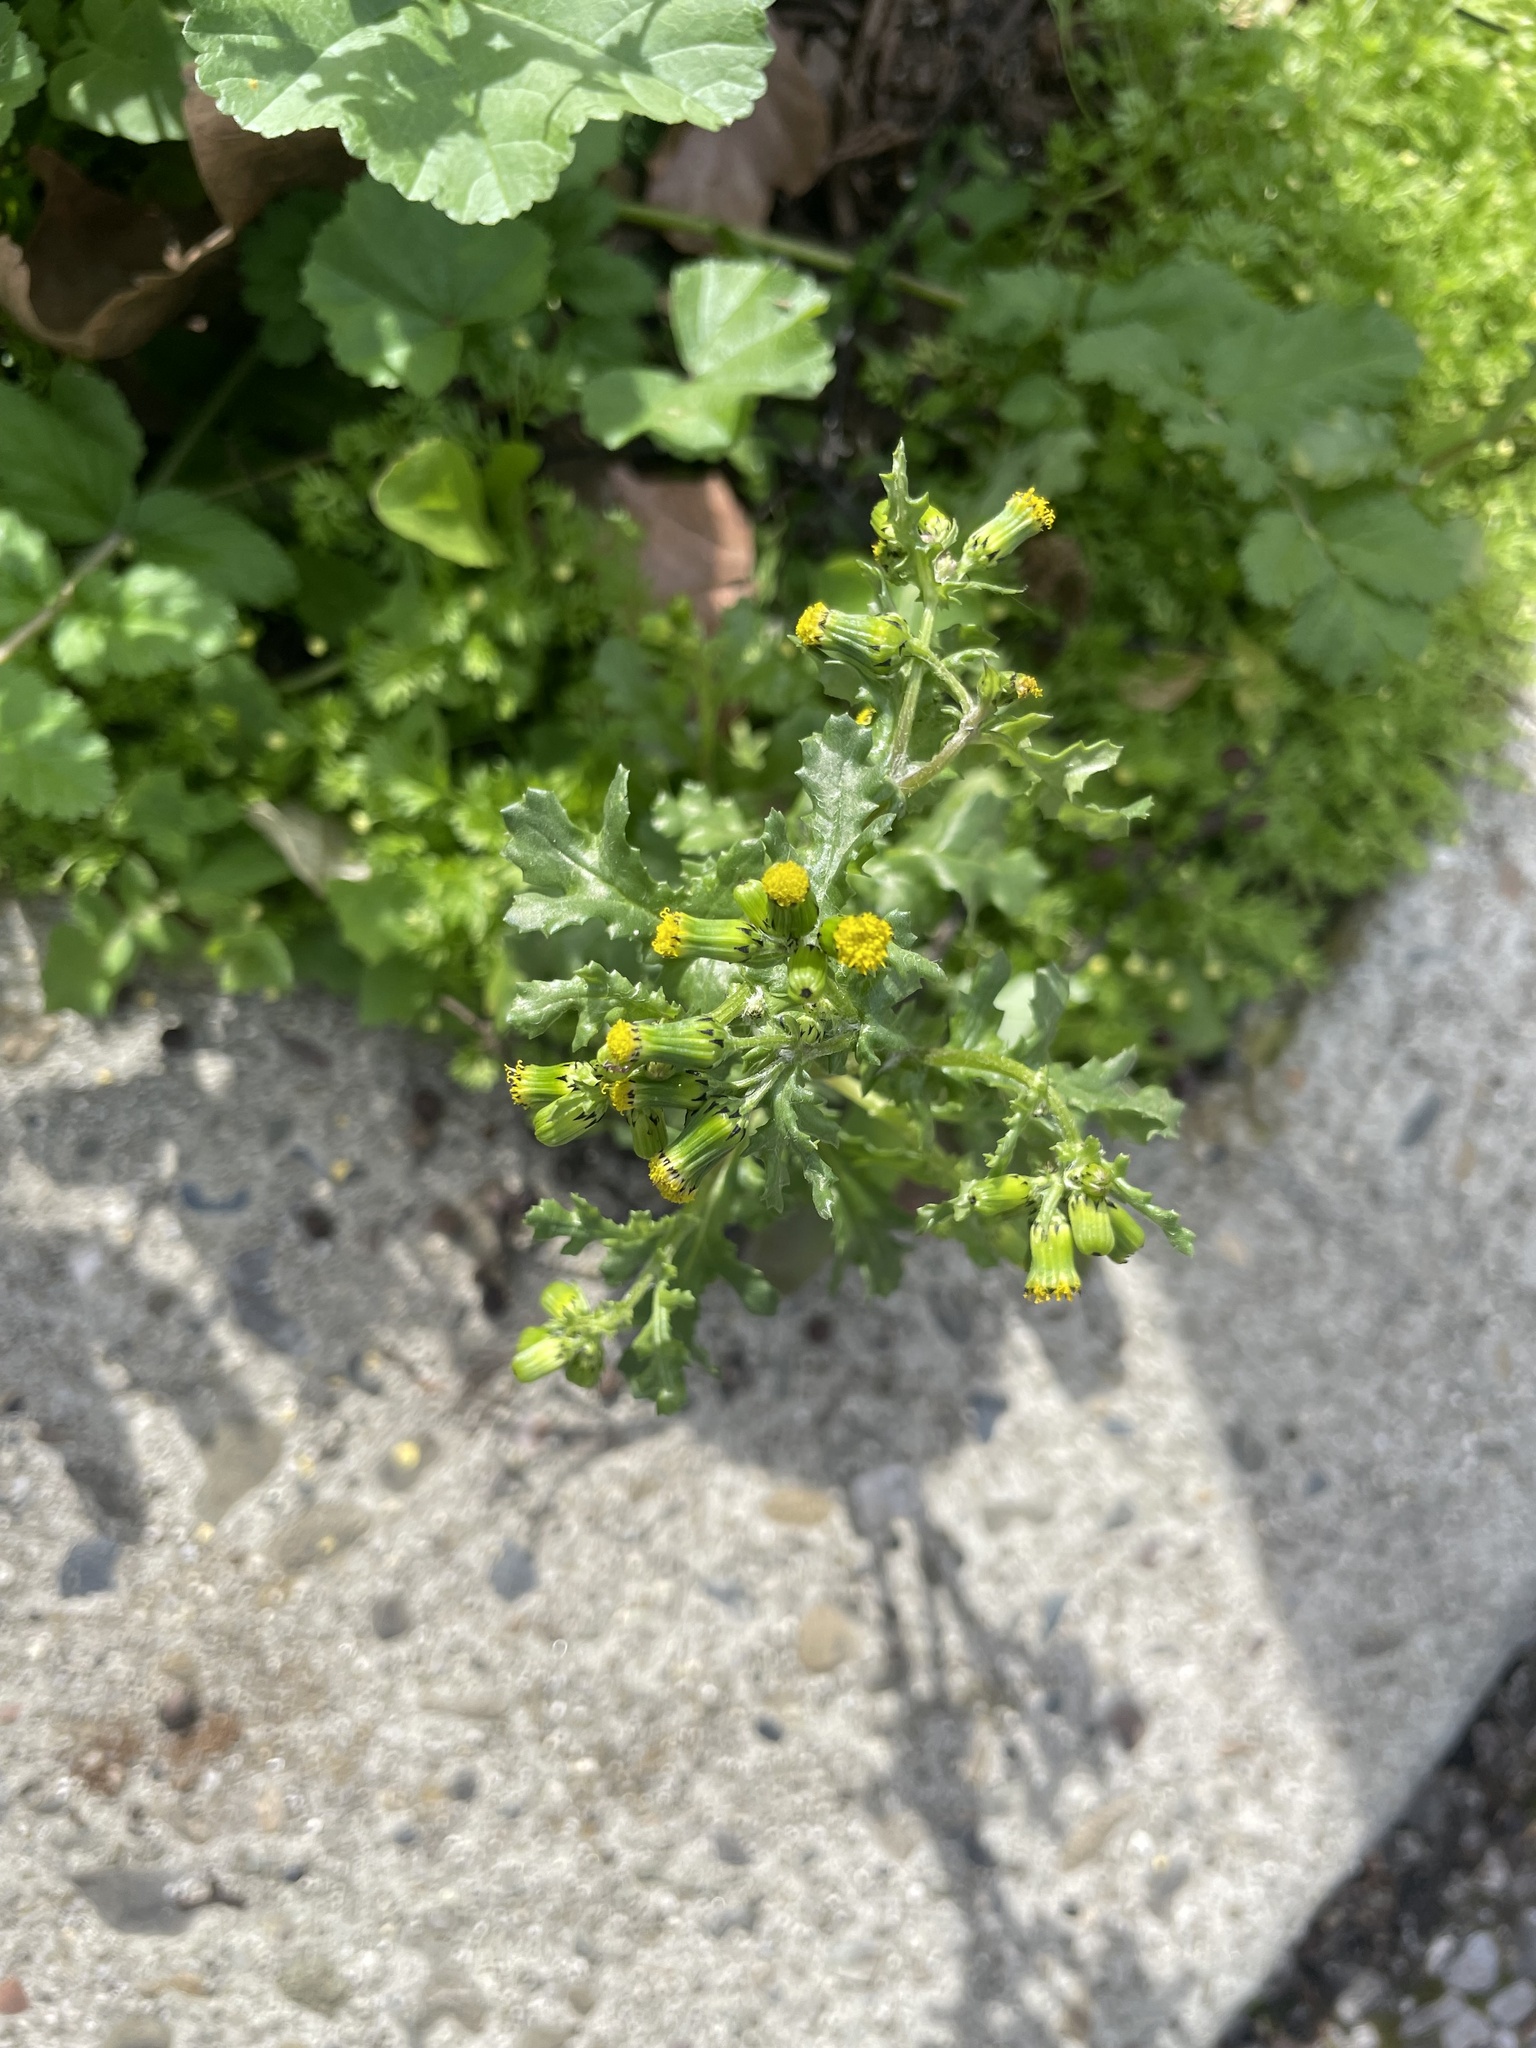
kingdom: Plantae
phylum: Tracheophyta
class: Magnoliopsida
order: Asterales
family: Asteraceae
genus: Senecio
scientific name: Senecio vulgaris
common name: Old-man-in-the-spring
